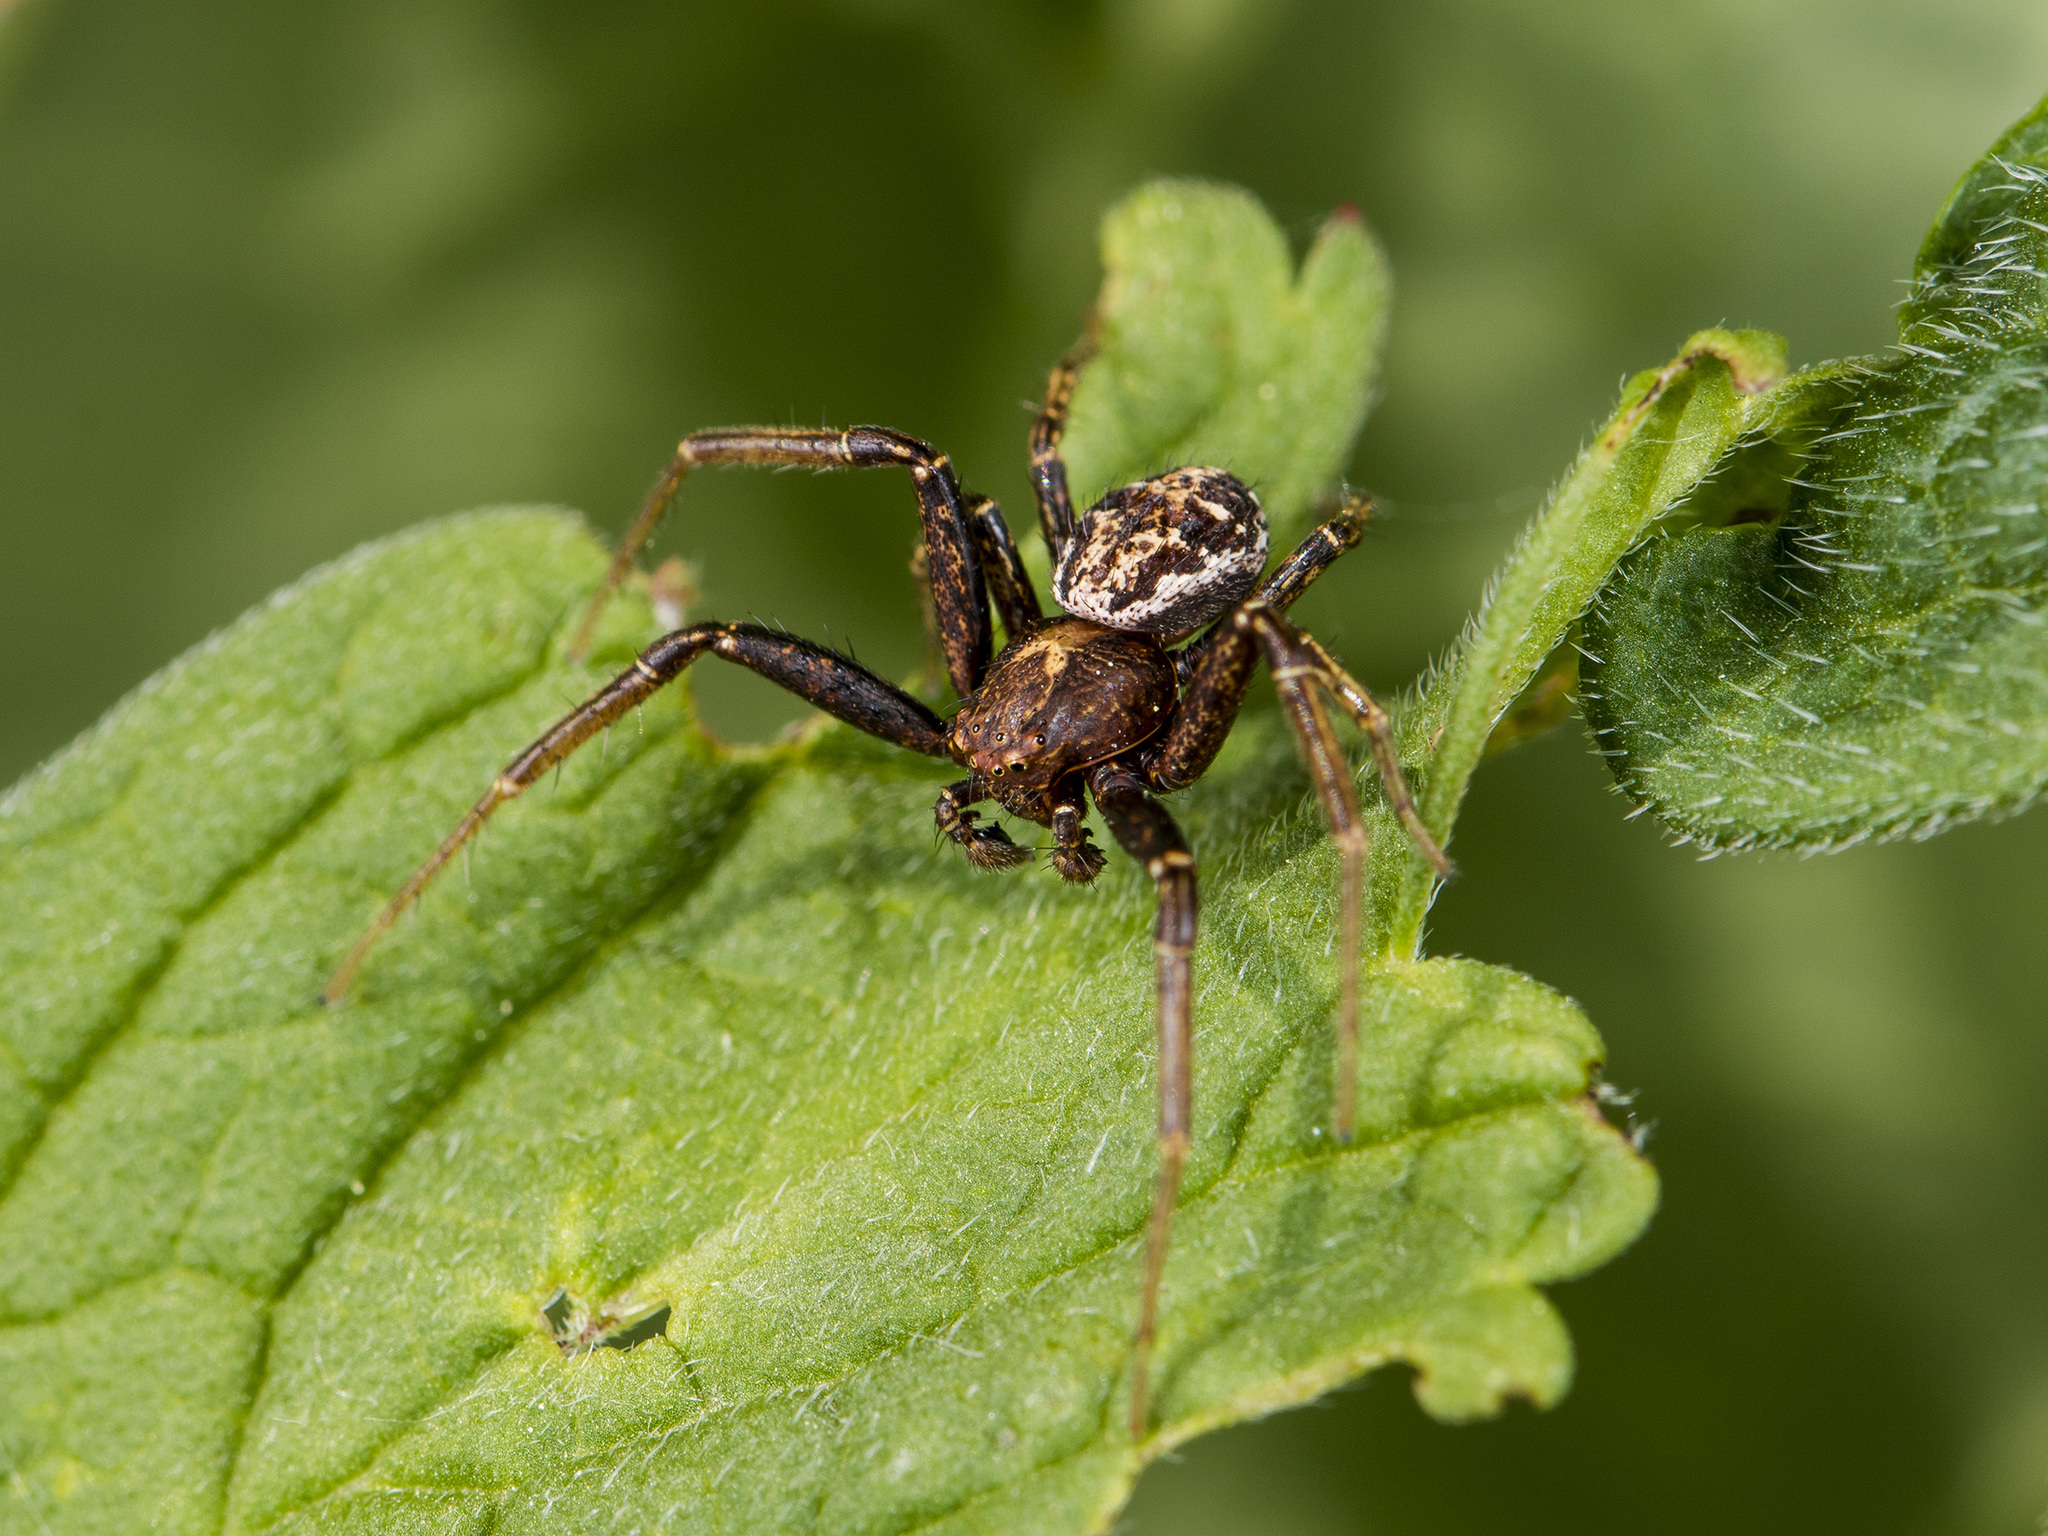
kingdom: Animalia
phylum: Arthropoda
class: Arachnida
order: Araneae
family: Thomisidae
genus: Xysticus
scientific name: Xysticus dzhungaricus
